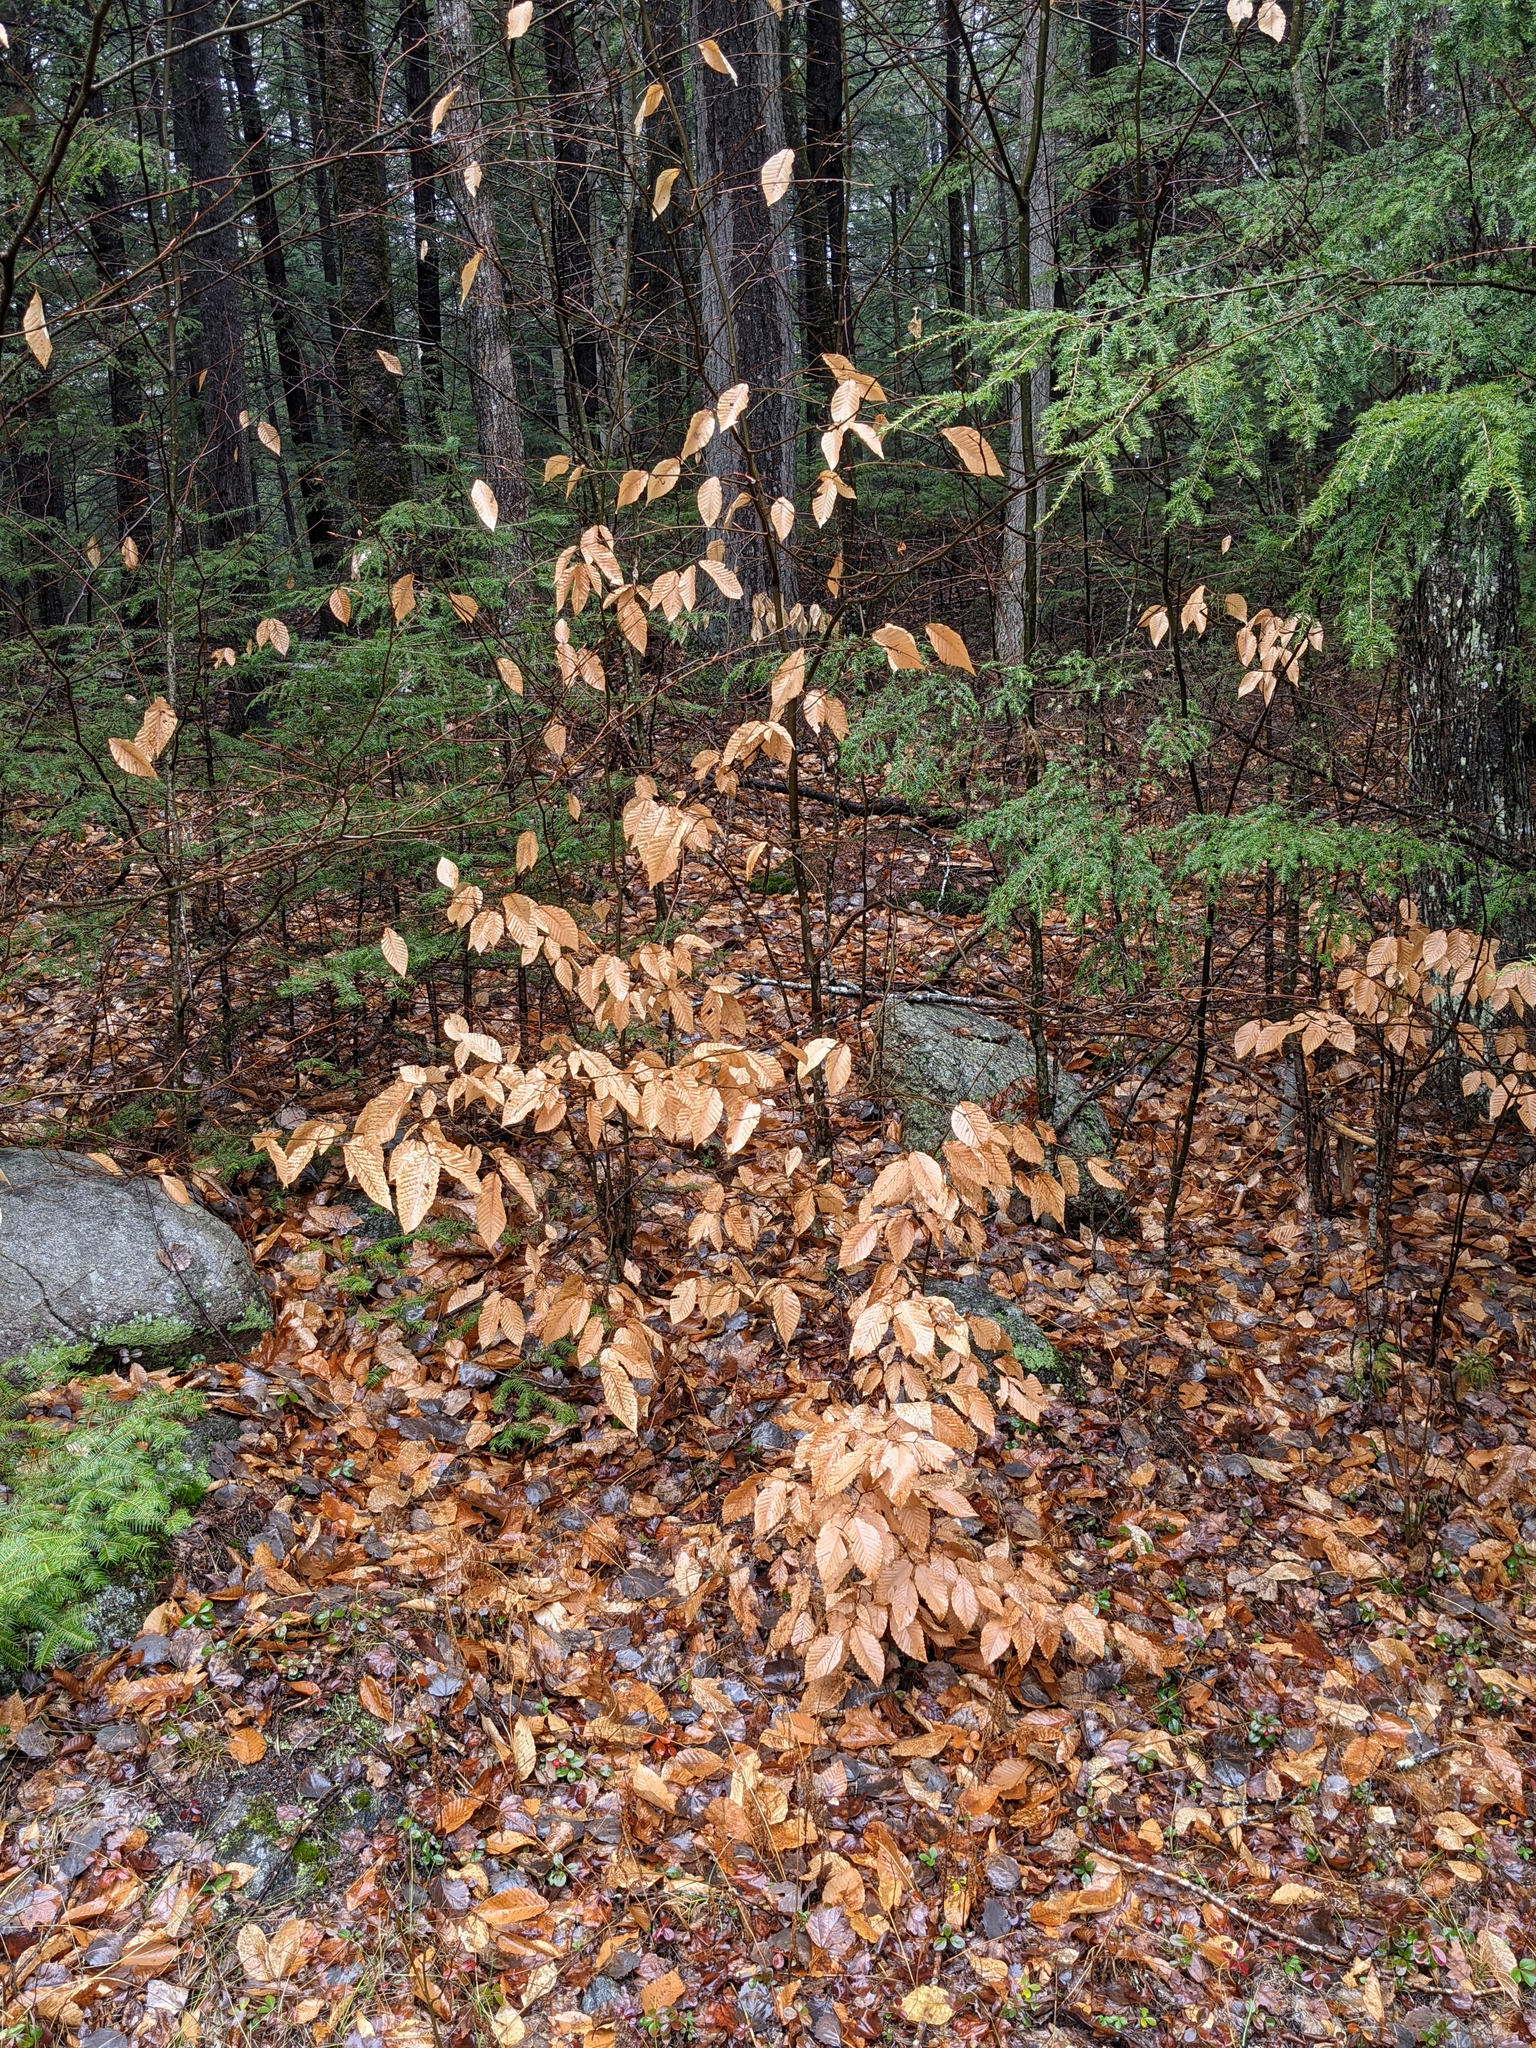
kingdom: Plantae
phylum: Tracheophyta
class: Magnoliopsida
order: Fagales
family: Fagaceae
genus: Fagus
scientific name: Fagus grandifolia
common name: American beech
